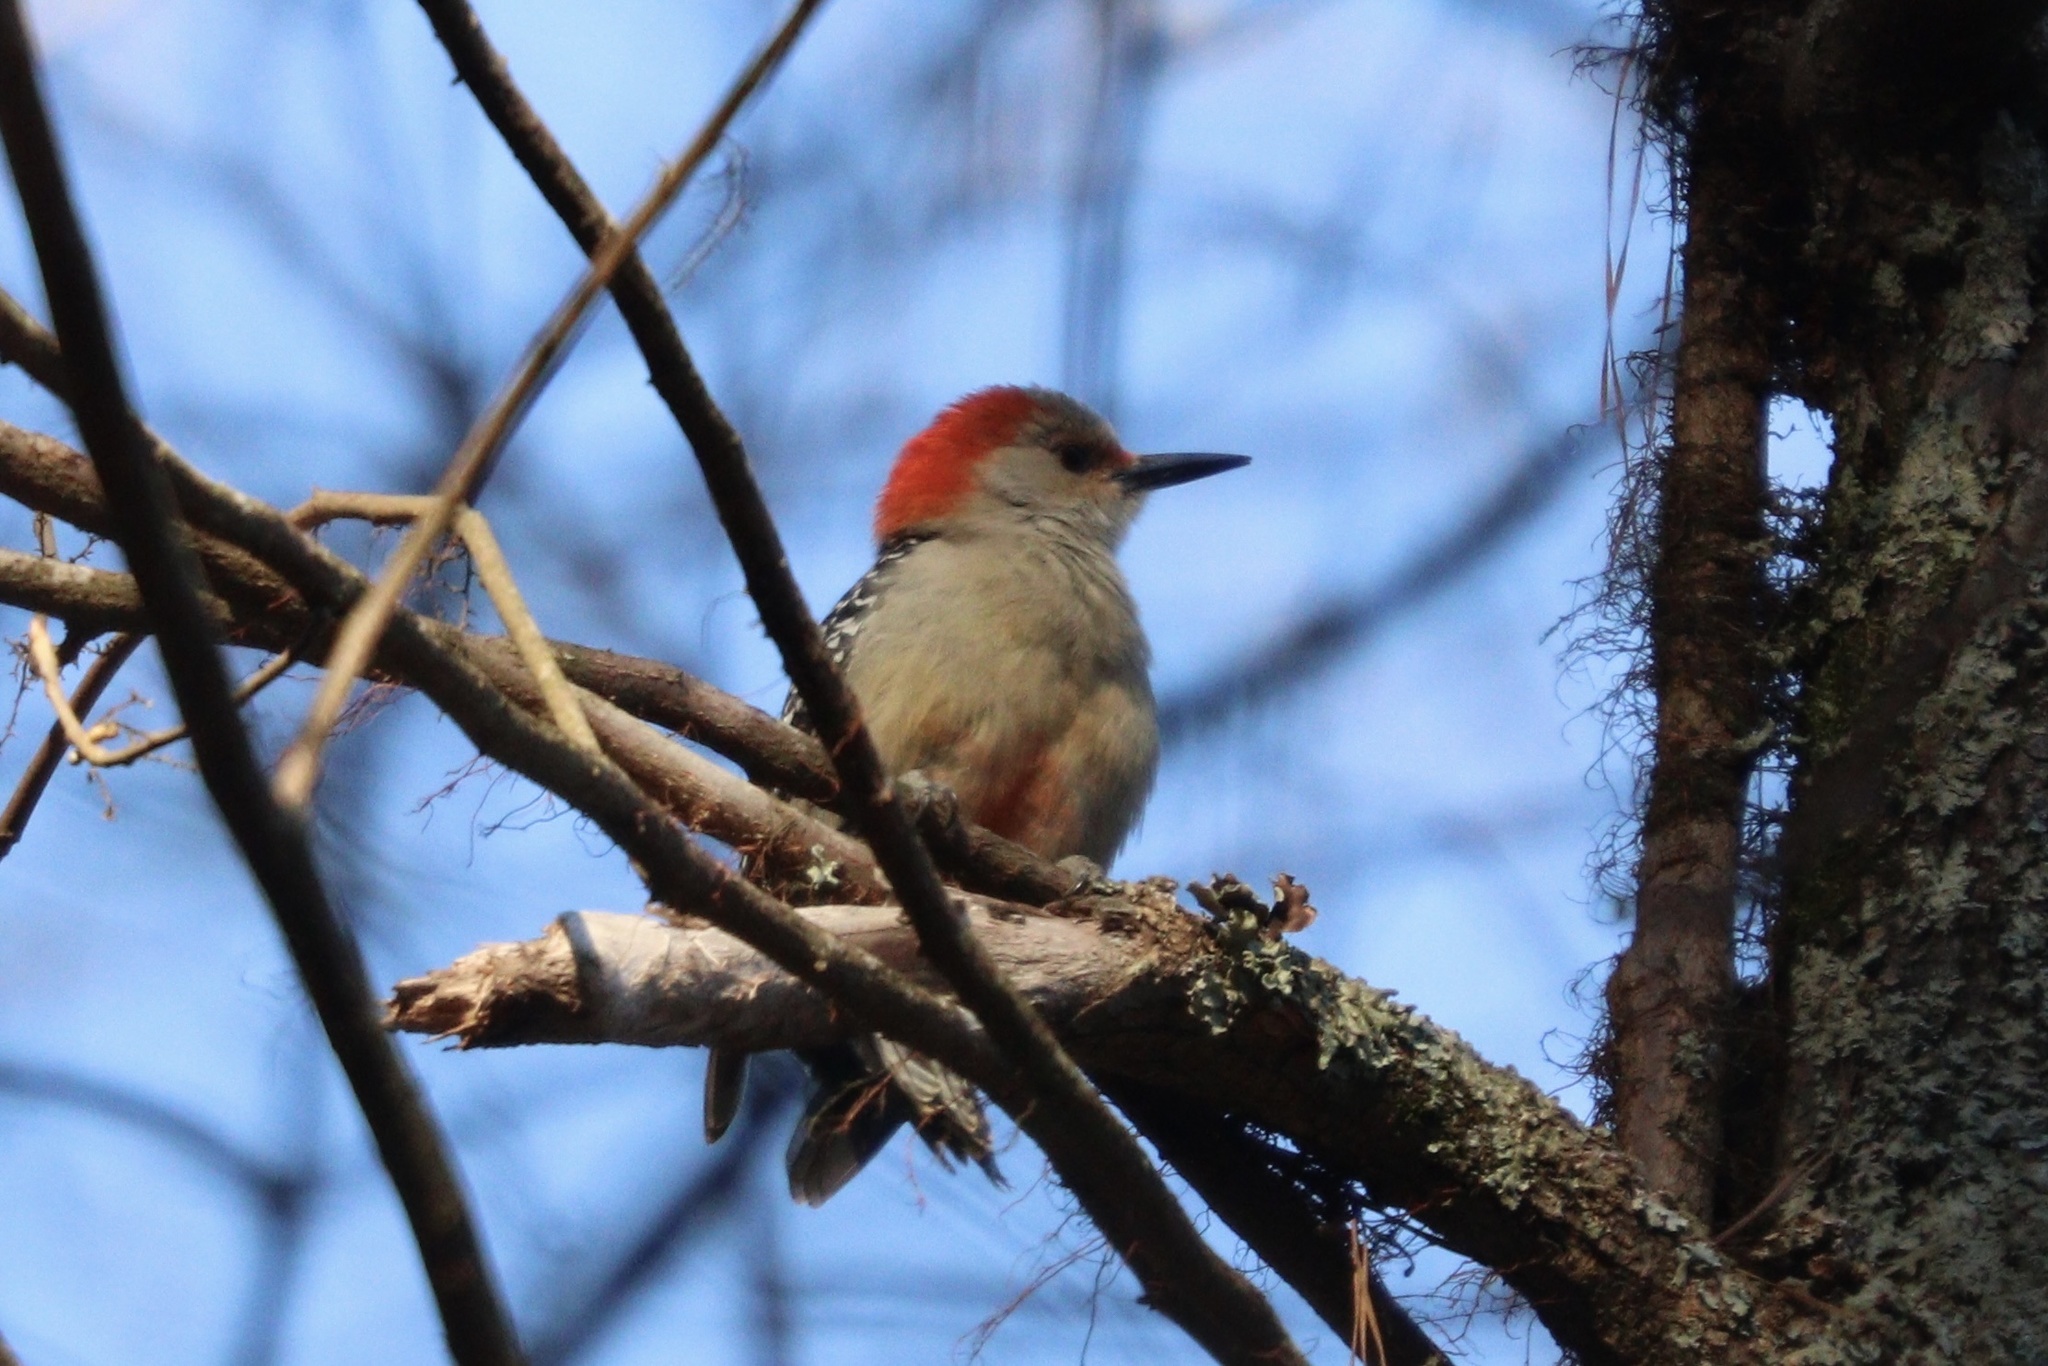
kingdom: Animalia
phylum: Chordata
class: Aves
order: Piciformes
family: Picidae
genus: Melanerpes
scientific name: Melanerpes carolinus
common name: Red-bellied woodpecker
